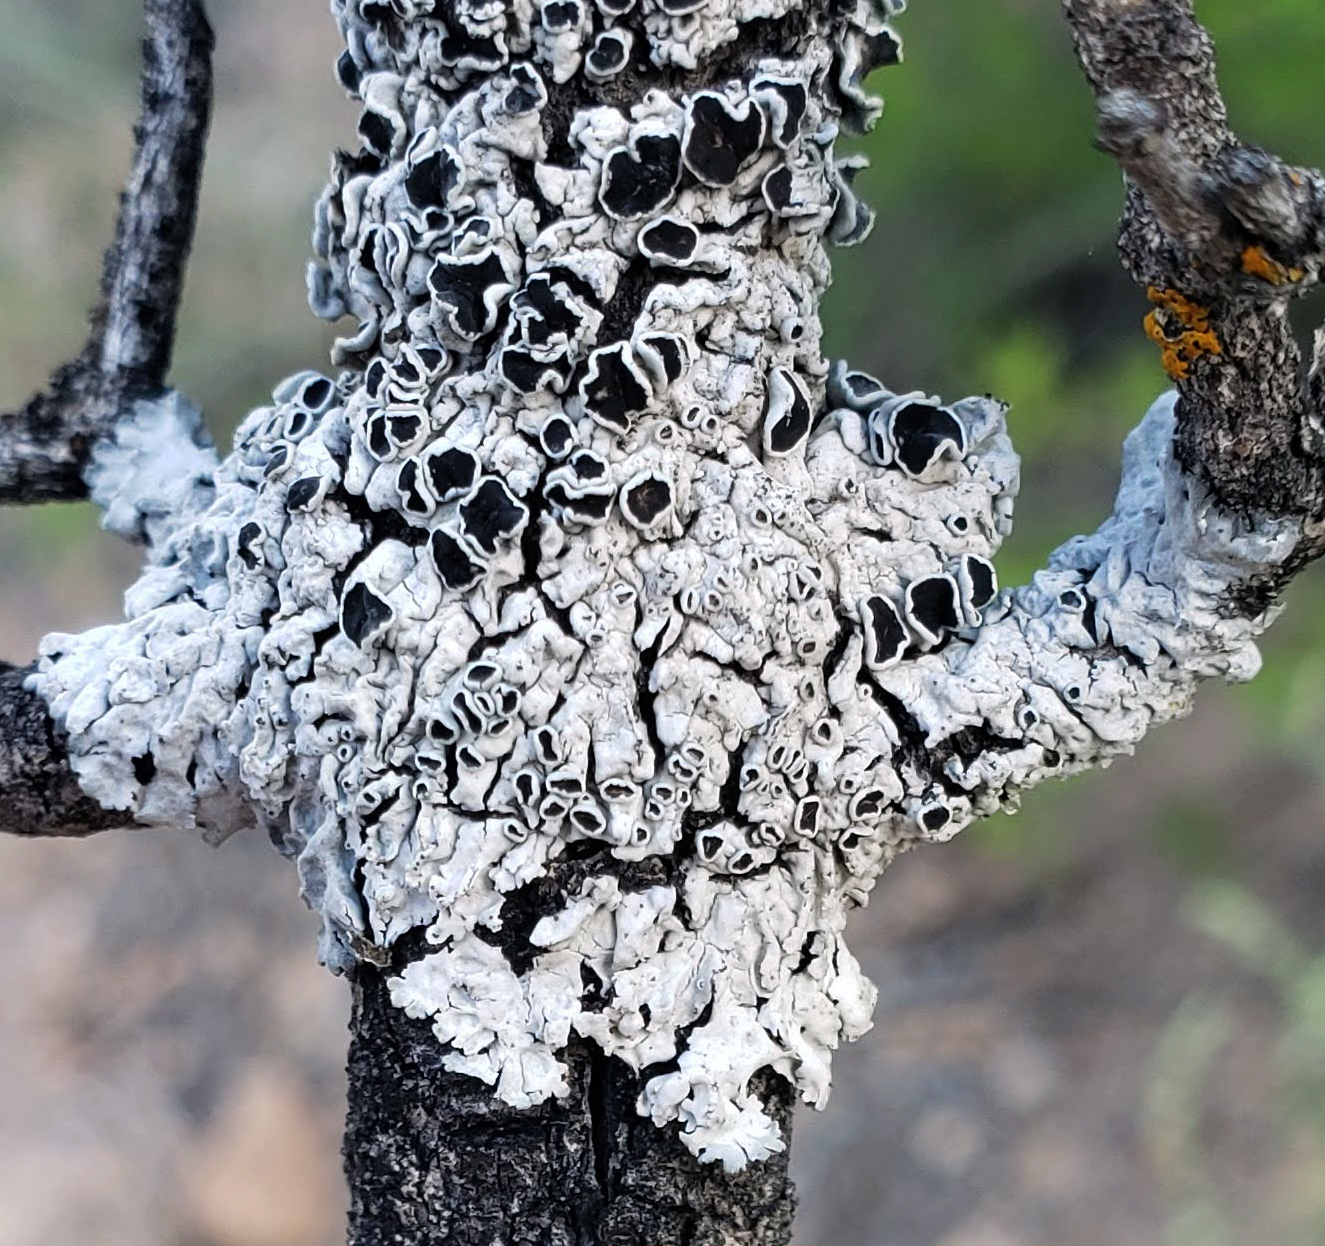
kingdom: Fungi
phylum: Ascomycota
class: Lecanoromycetes
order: Caliciales
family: Physciaceae
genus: Physcia
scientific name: Physcia biziana
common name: Frosted rosette lichen
